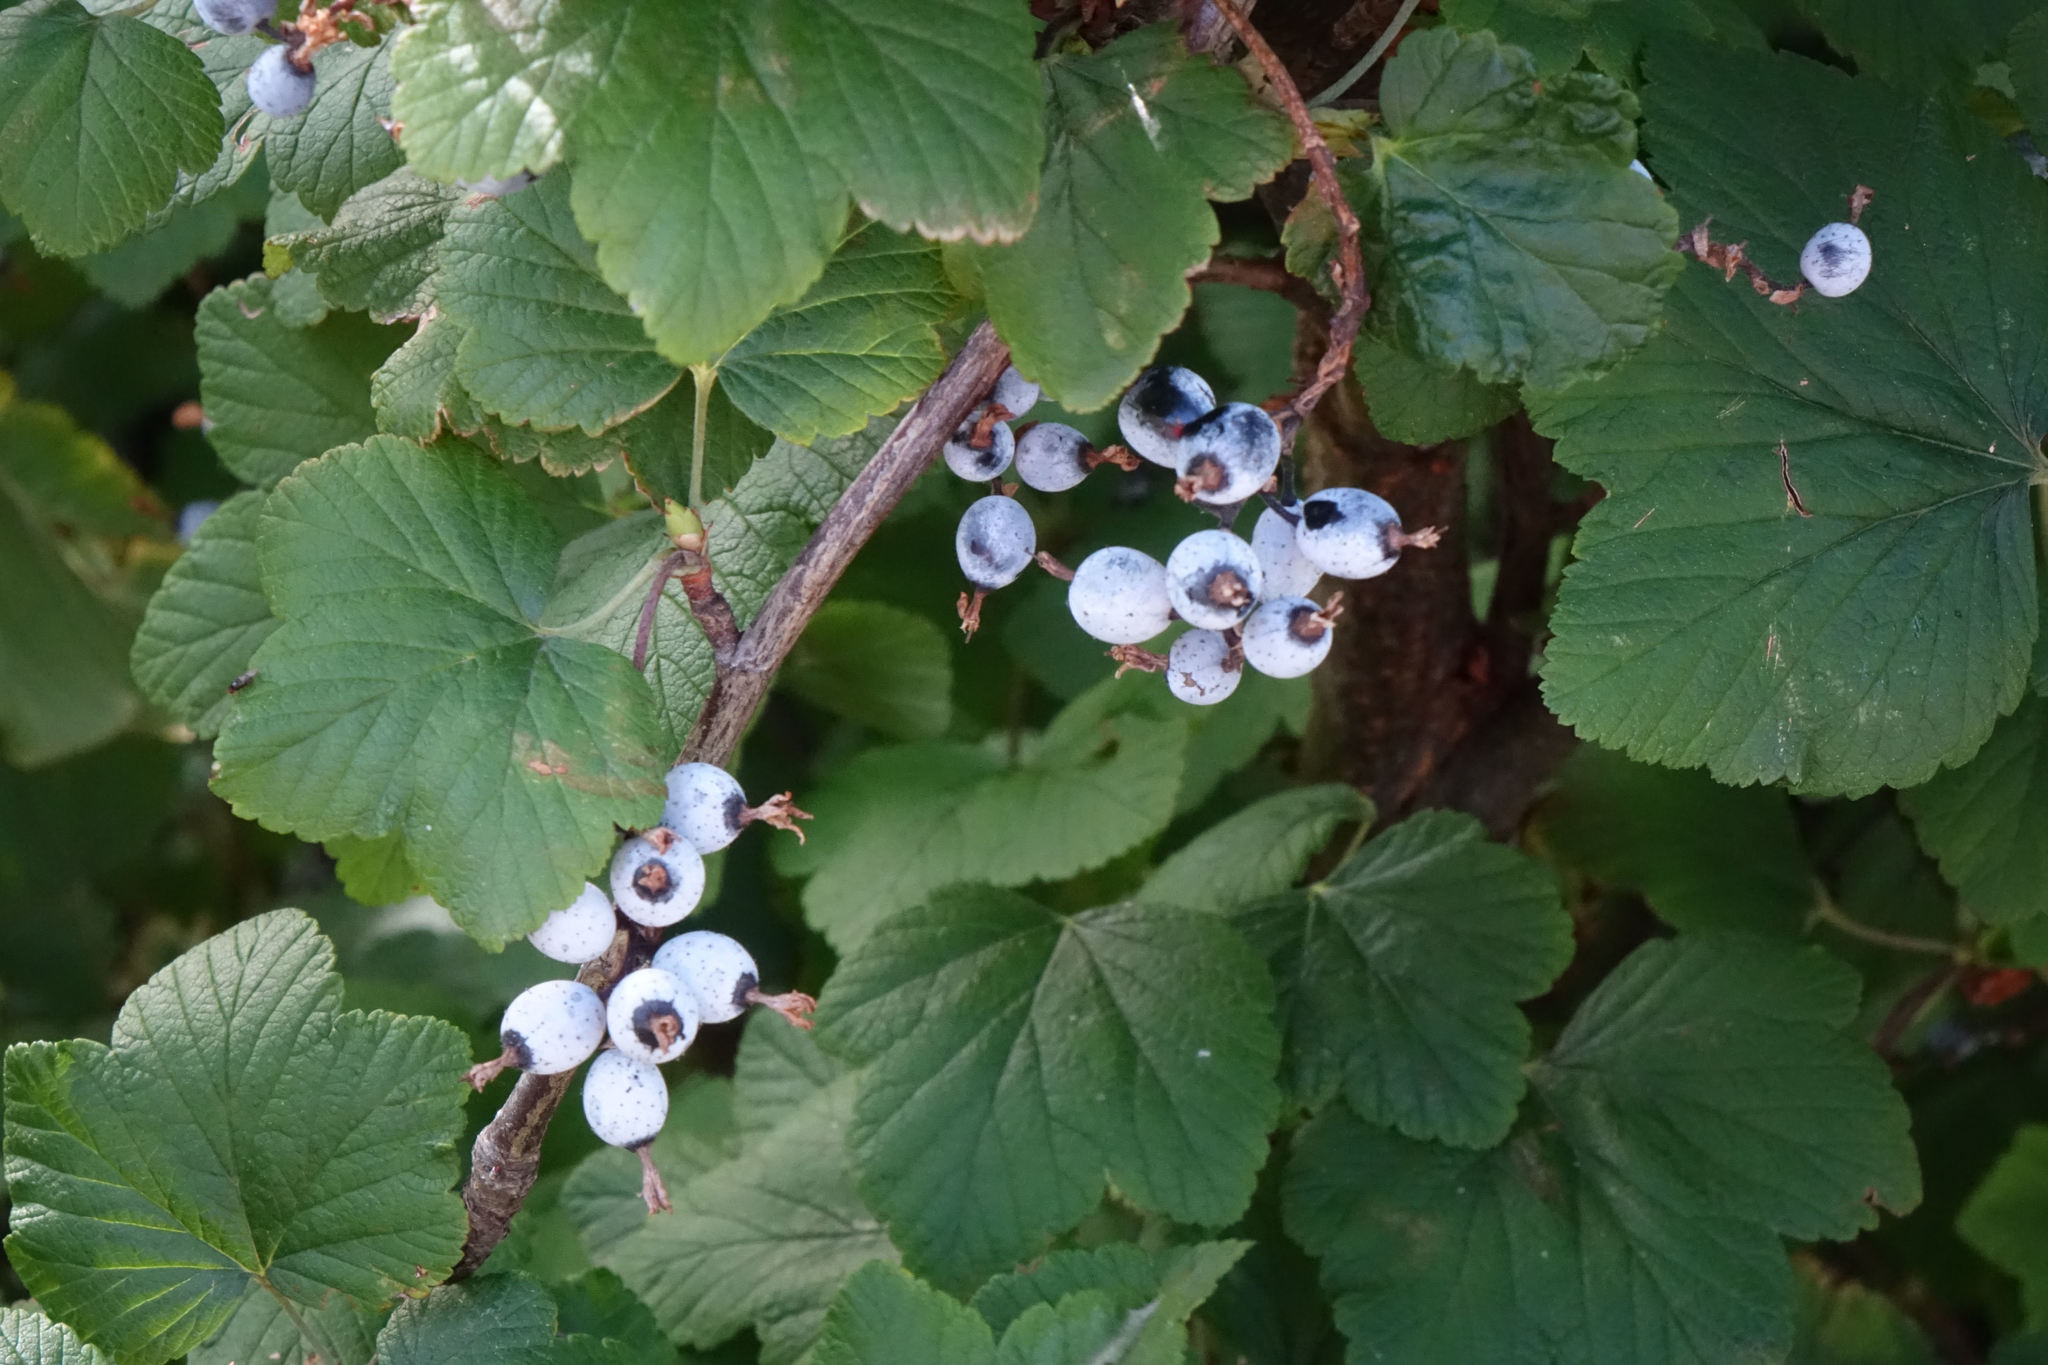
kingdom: Plantae
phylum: Tracheophyta
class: Magnoliopsida
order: Saxifragales
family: Grossulariaceae
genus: Ribes
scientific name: Ribes sanguineum
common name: Flowering currant
